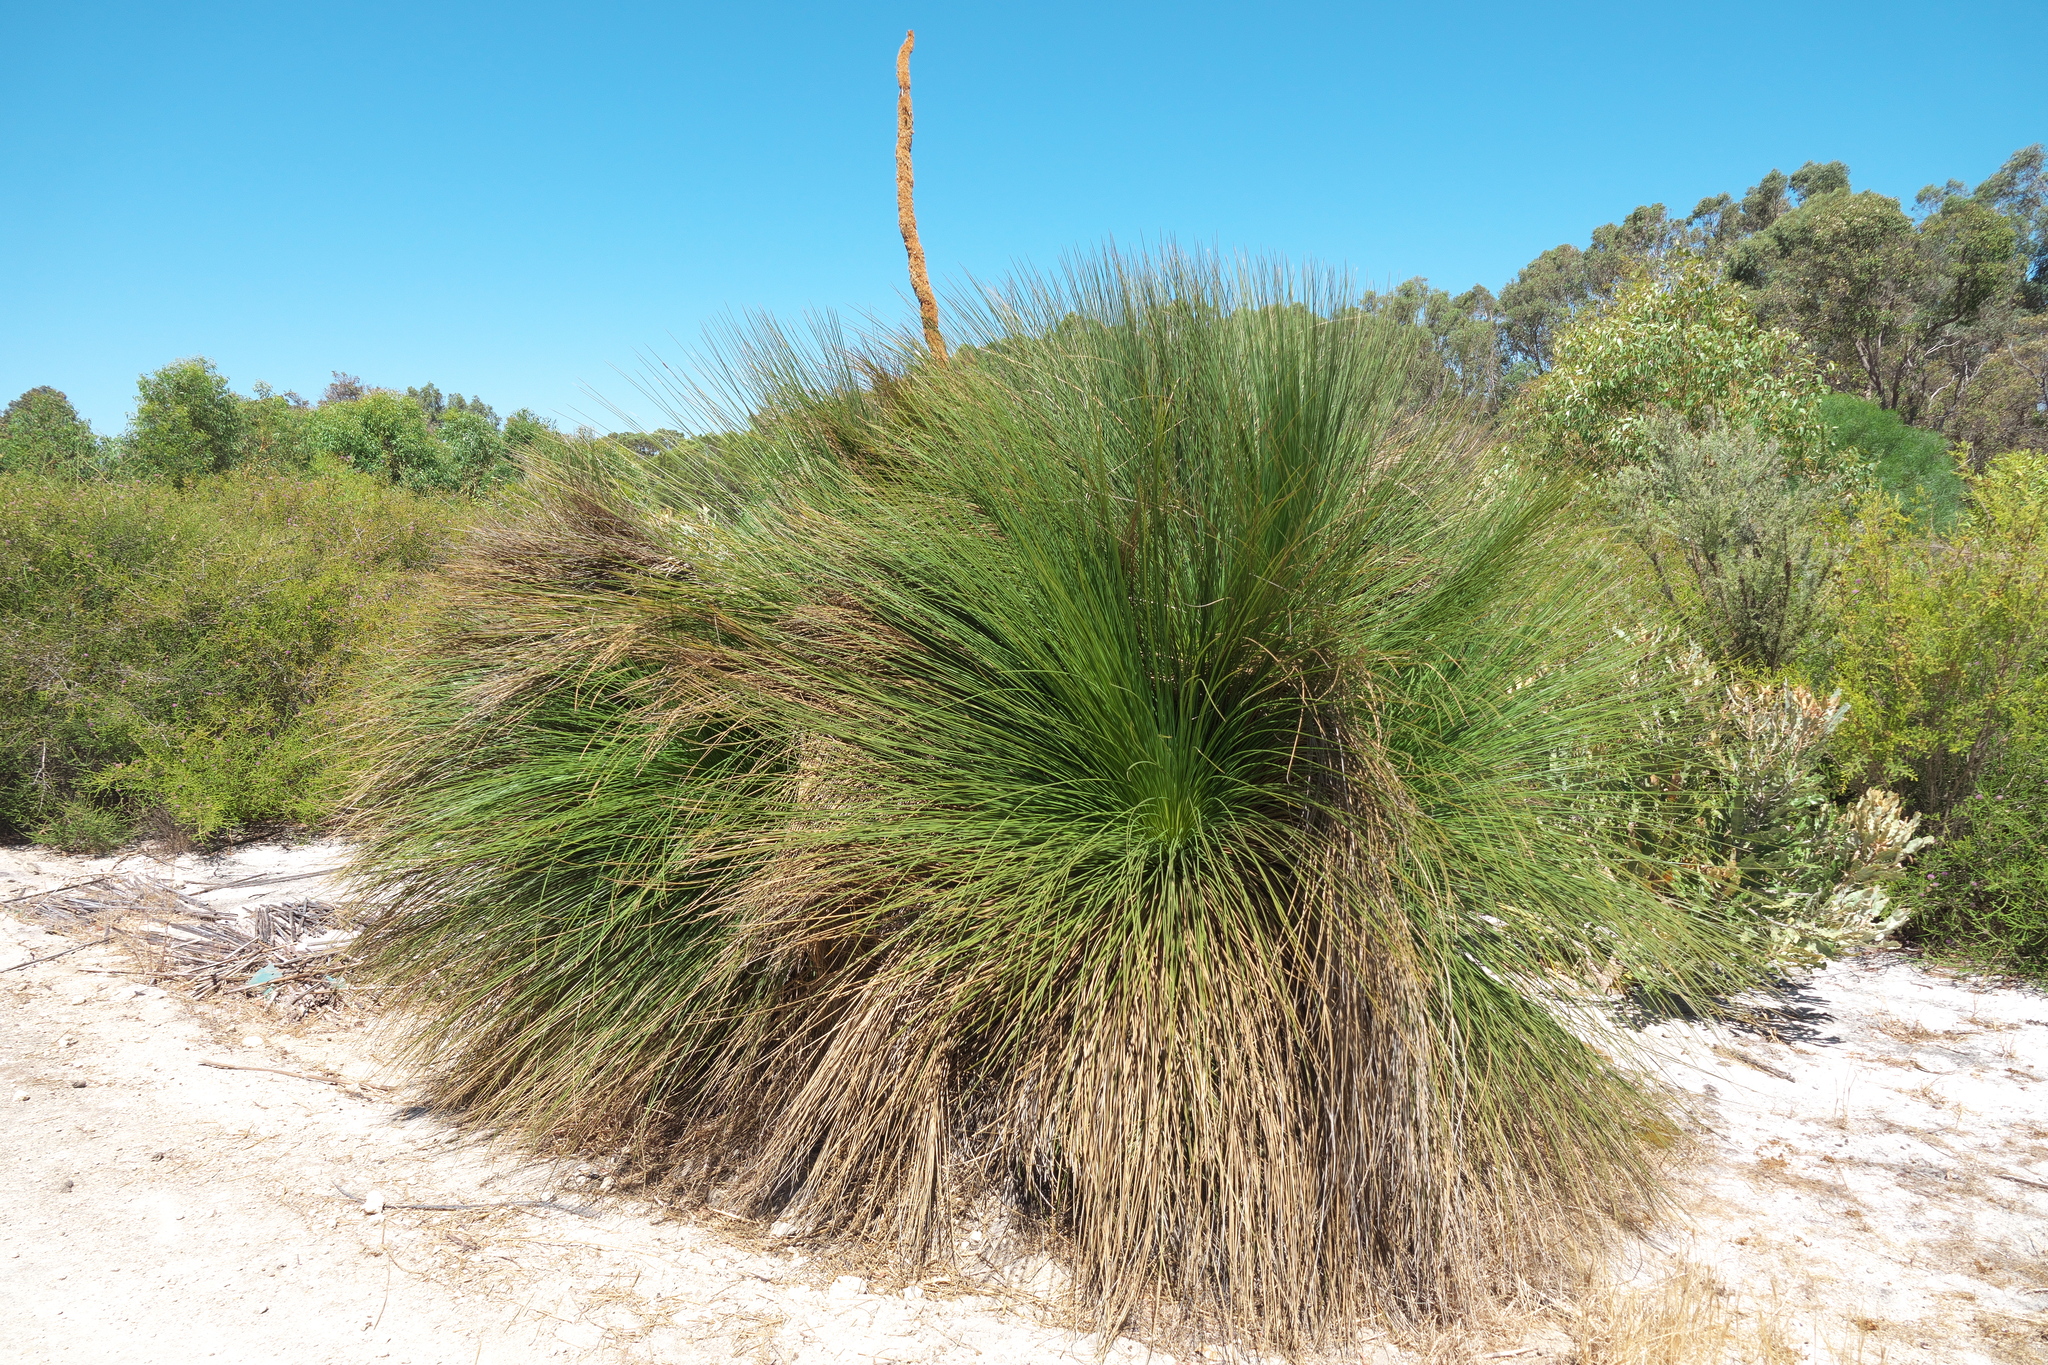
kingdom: Plantae
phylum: Tracheophyta
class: Liliopsida
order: Asparagales
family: Asphodelaceae
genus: Xanthorrhoea
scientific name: Xanthorrhoea preissii
